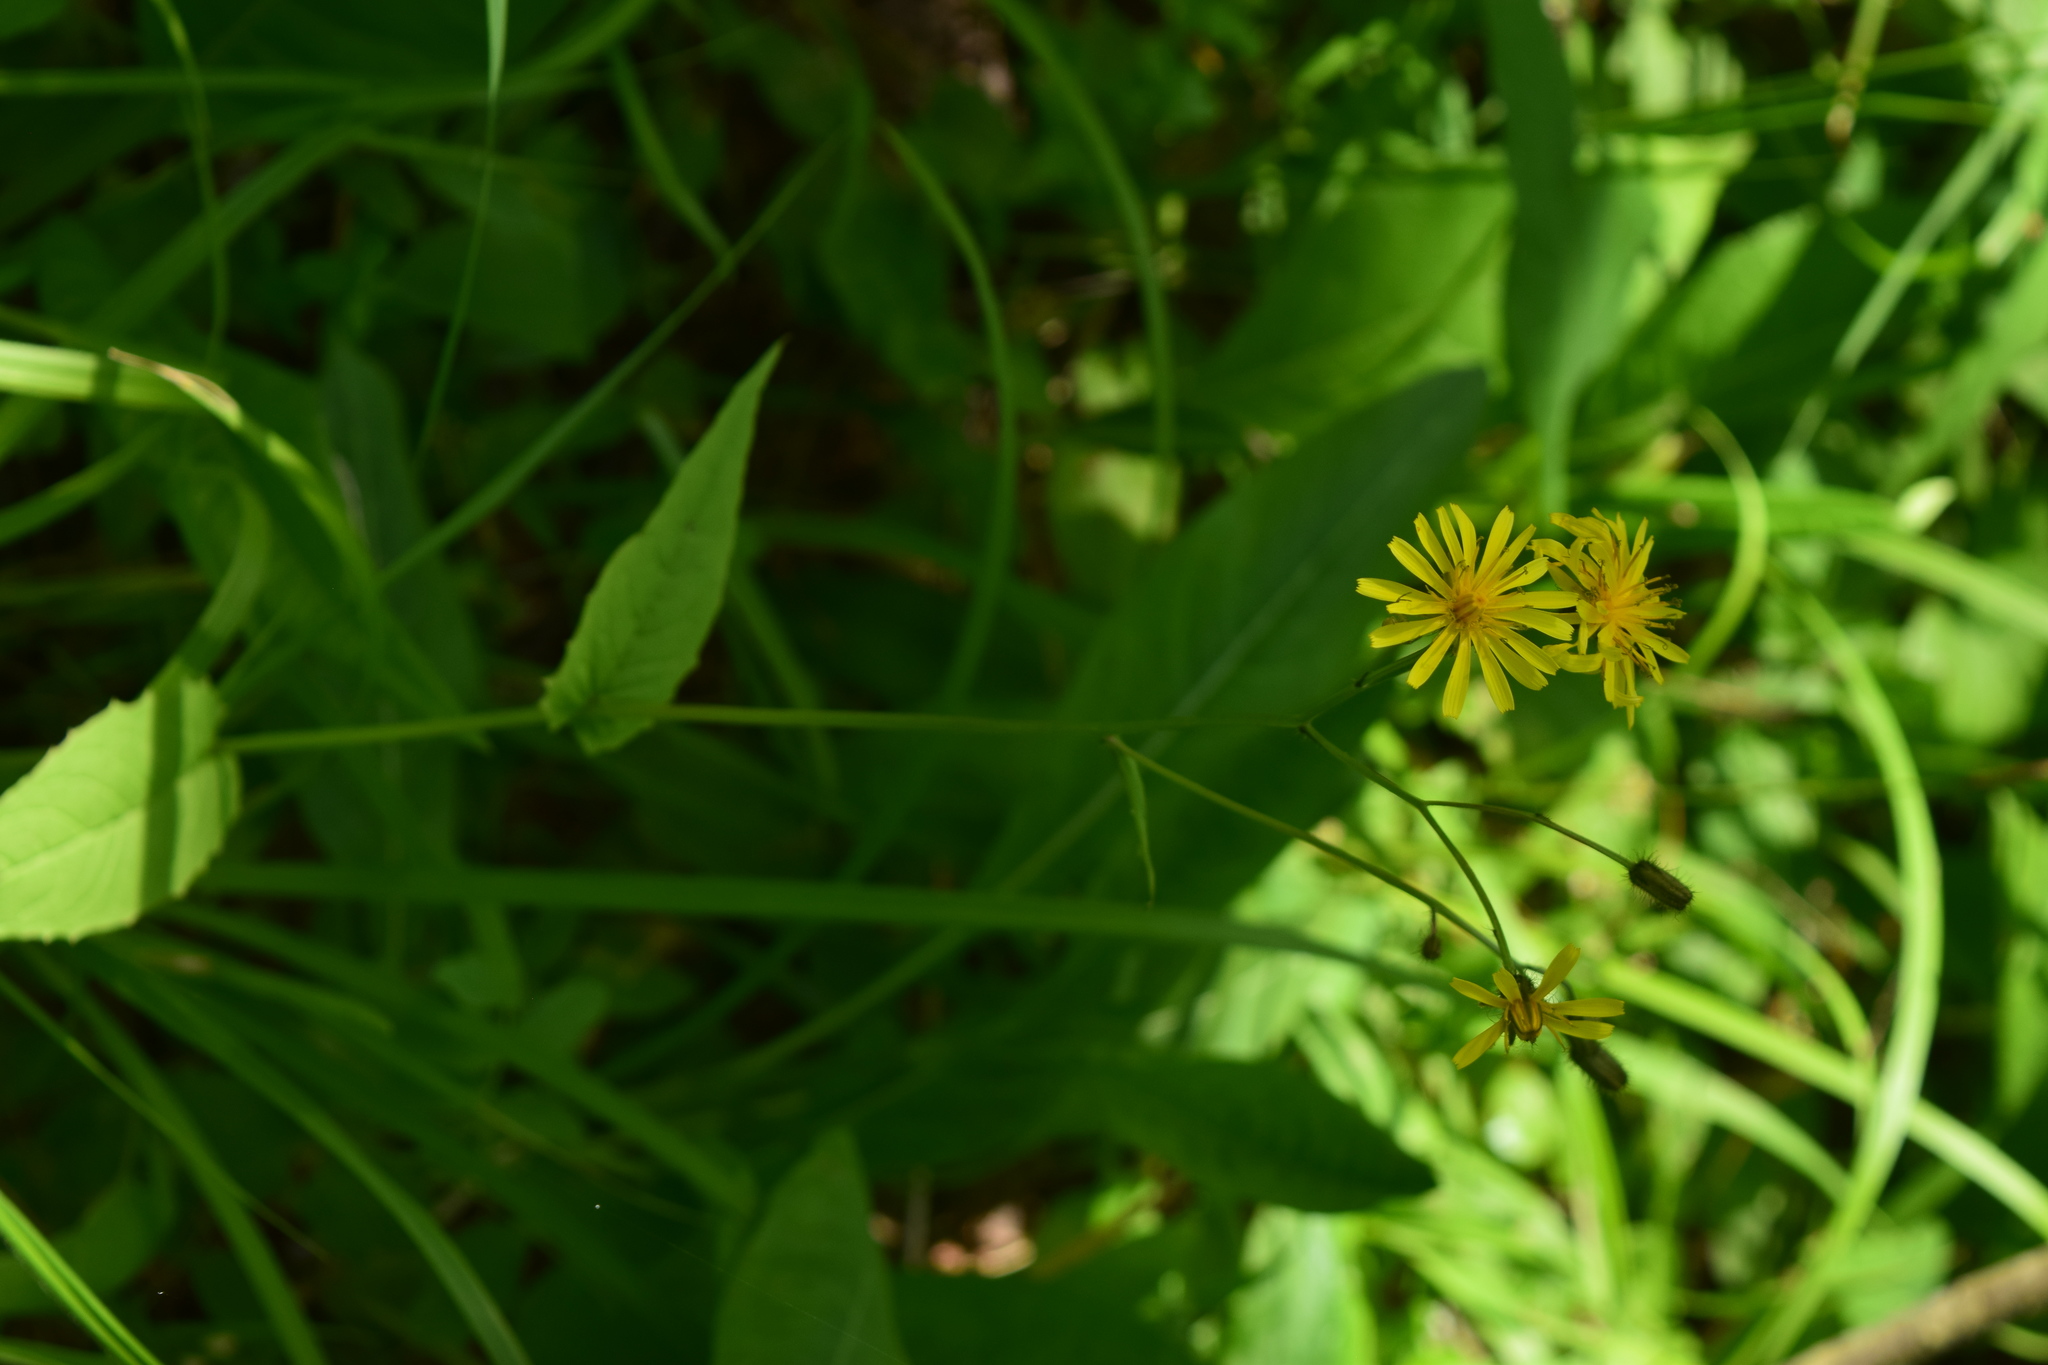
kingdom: Plantae
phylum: Tracheophyta
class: Magnoliopsida
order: Asterales
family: Asteraceae
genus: Crepis
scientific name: Crepis paludosa
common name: Marsh hawk's-beard
